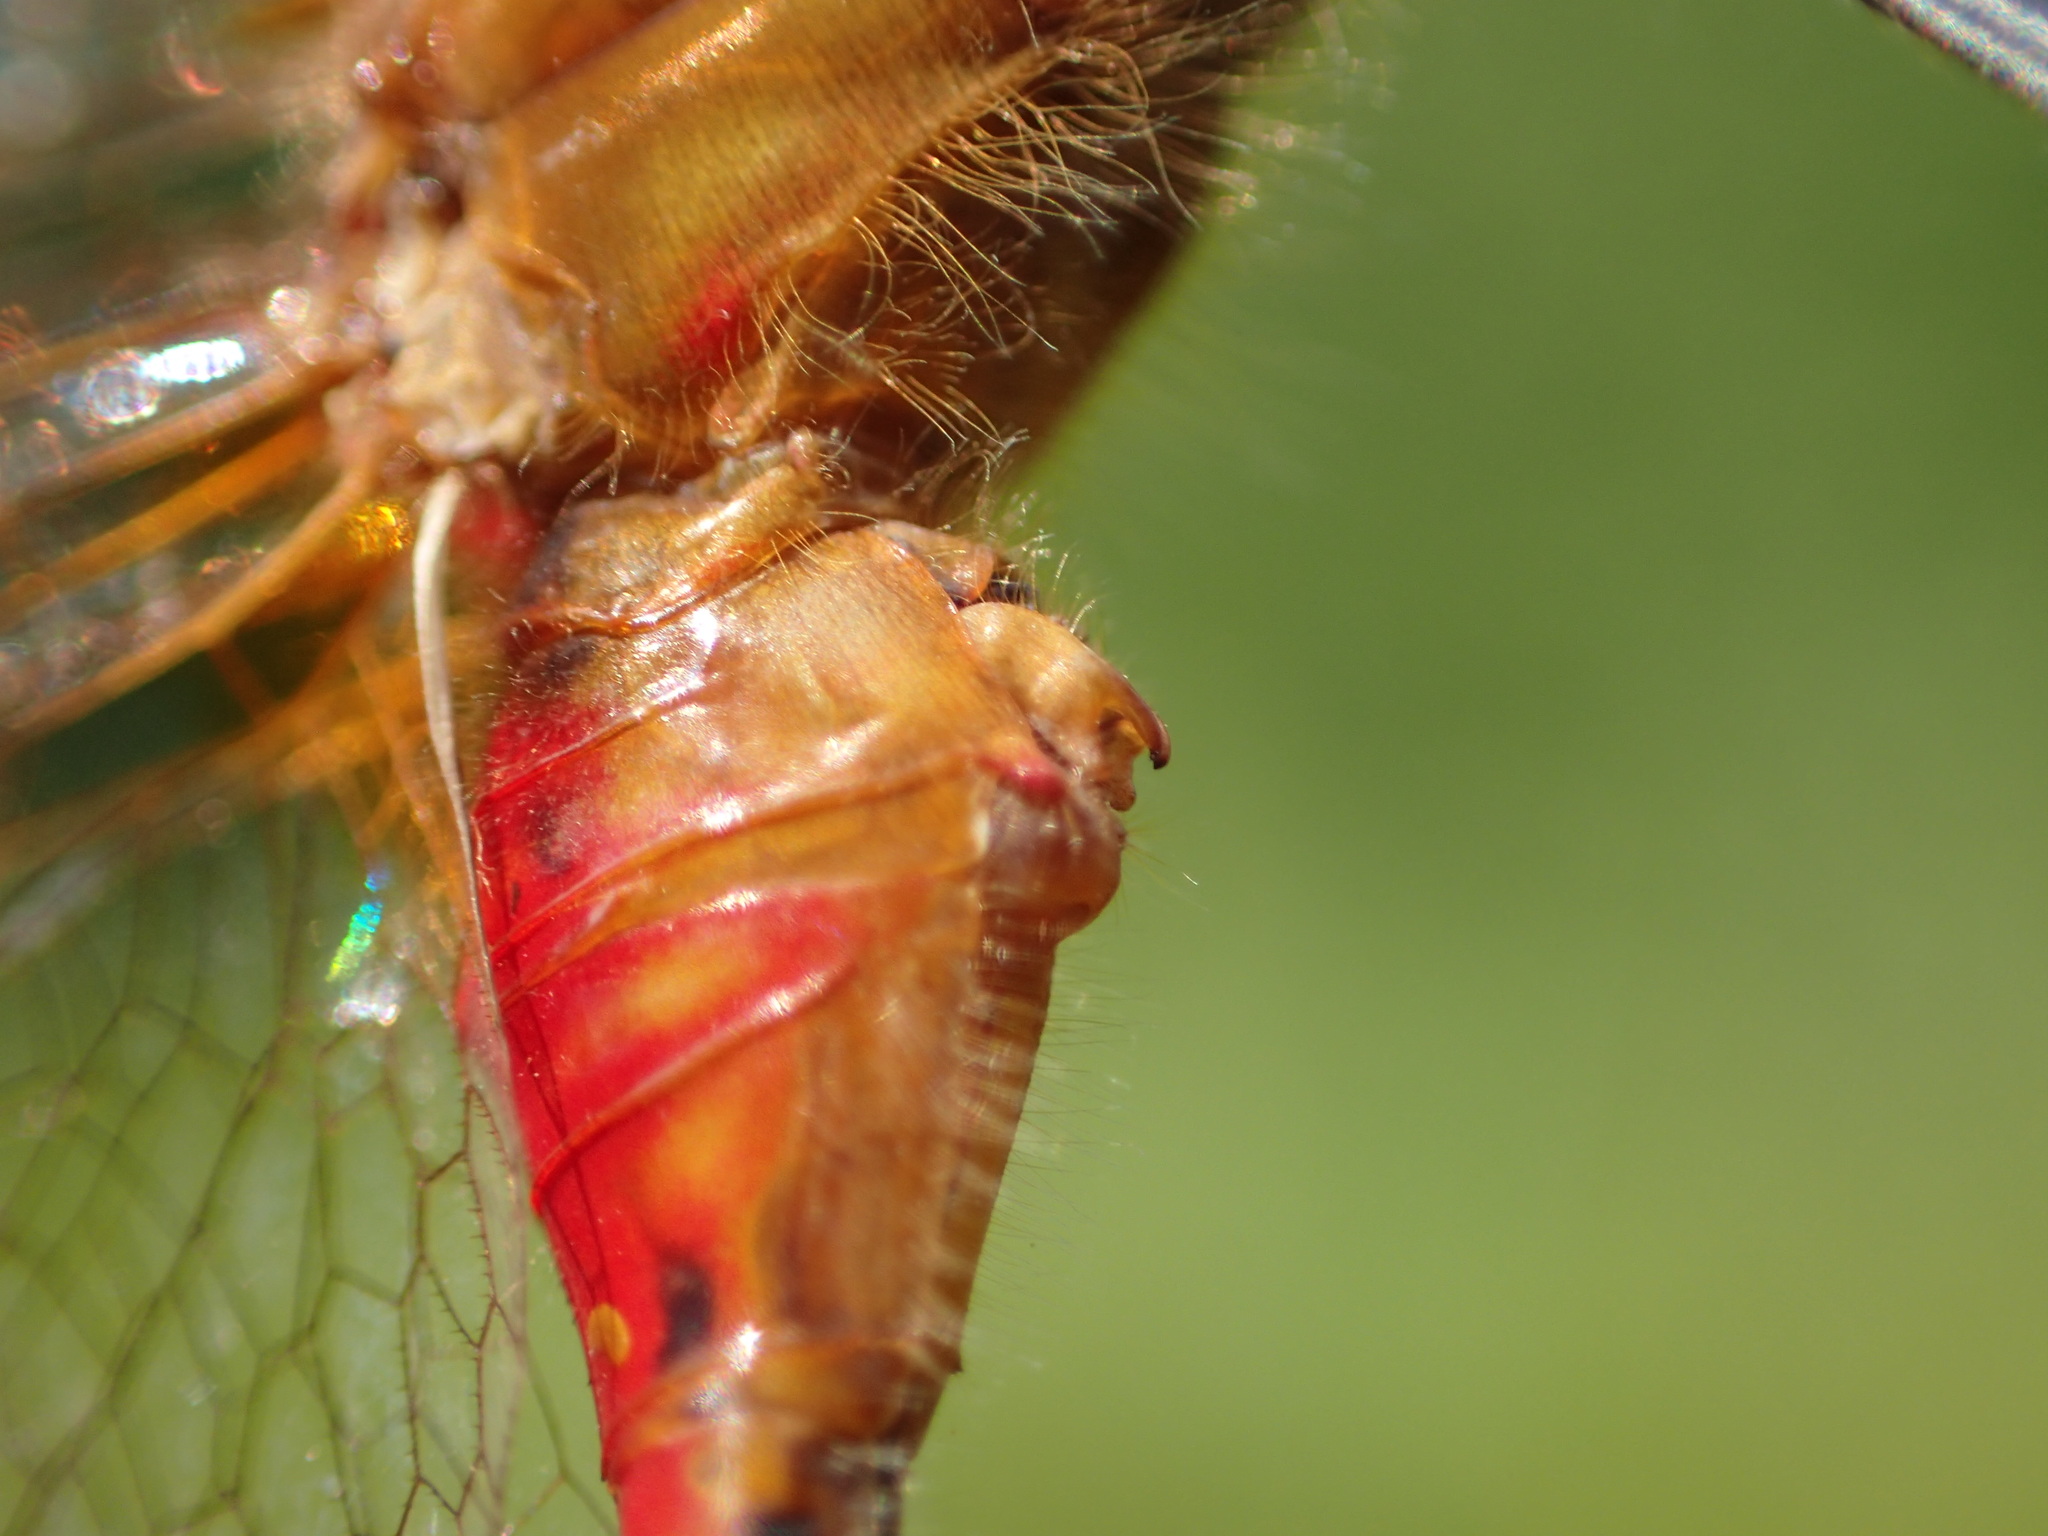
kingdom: Animalia
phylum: Arthropoda
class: Insecta
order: Odonata
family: Libellulidae
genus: Sympetrum
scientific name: Sympetrum internum
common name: Cherry-faced meadowhawk
